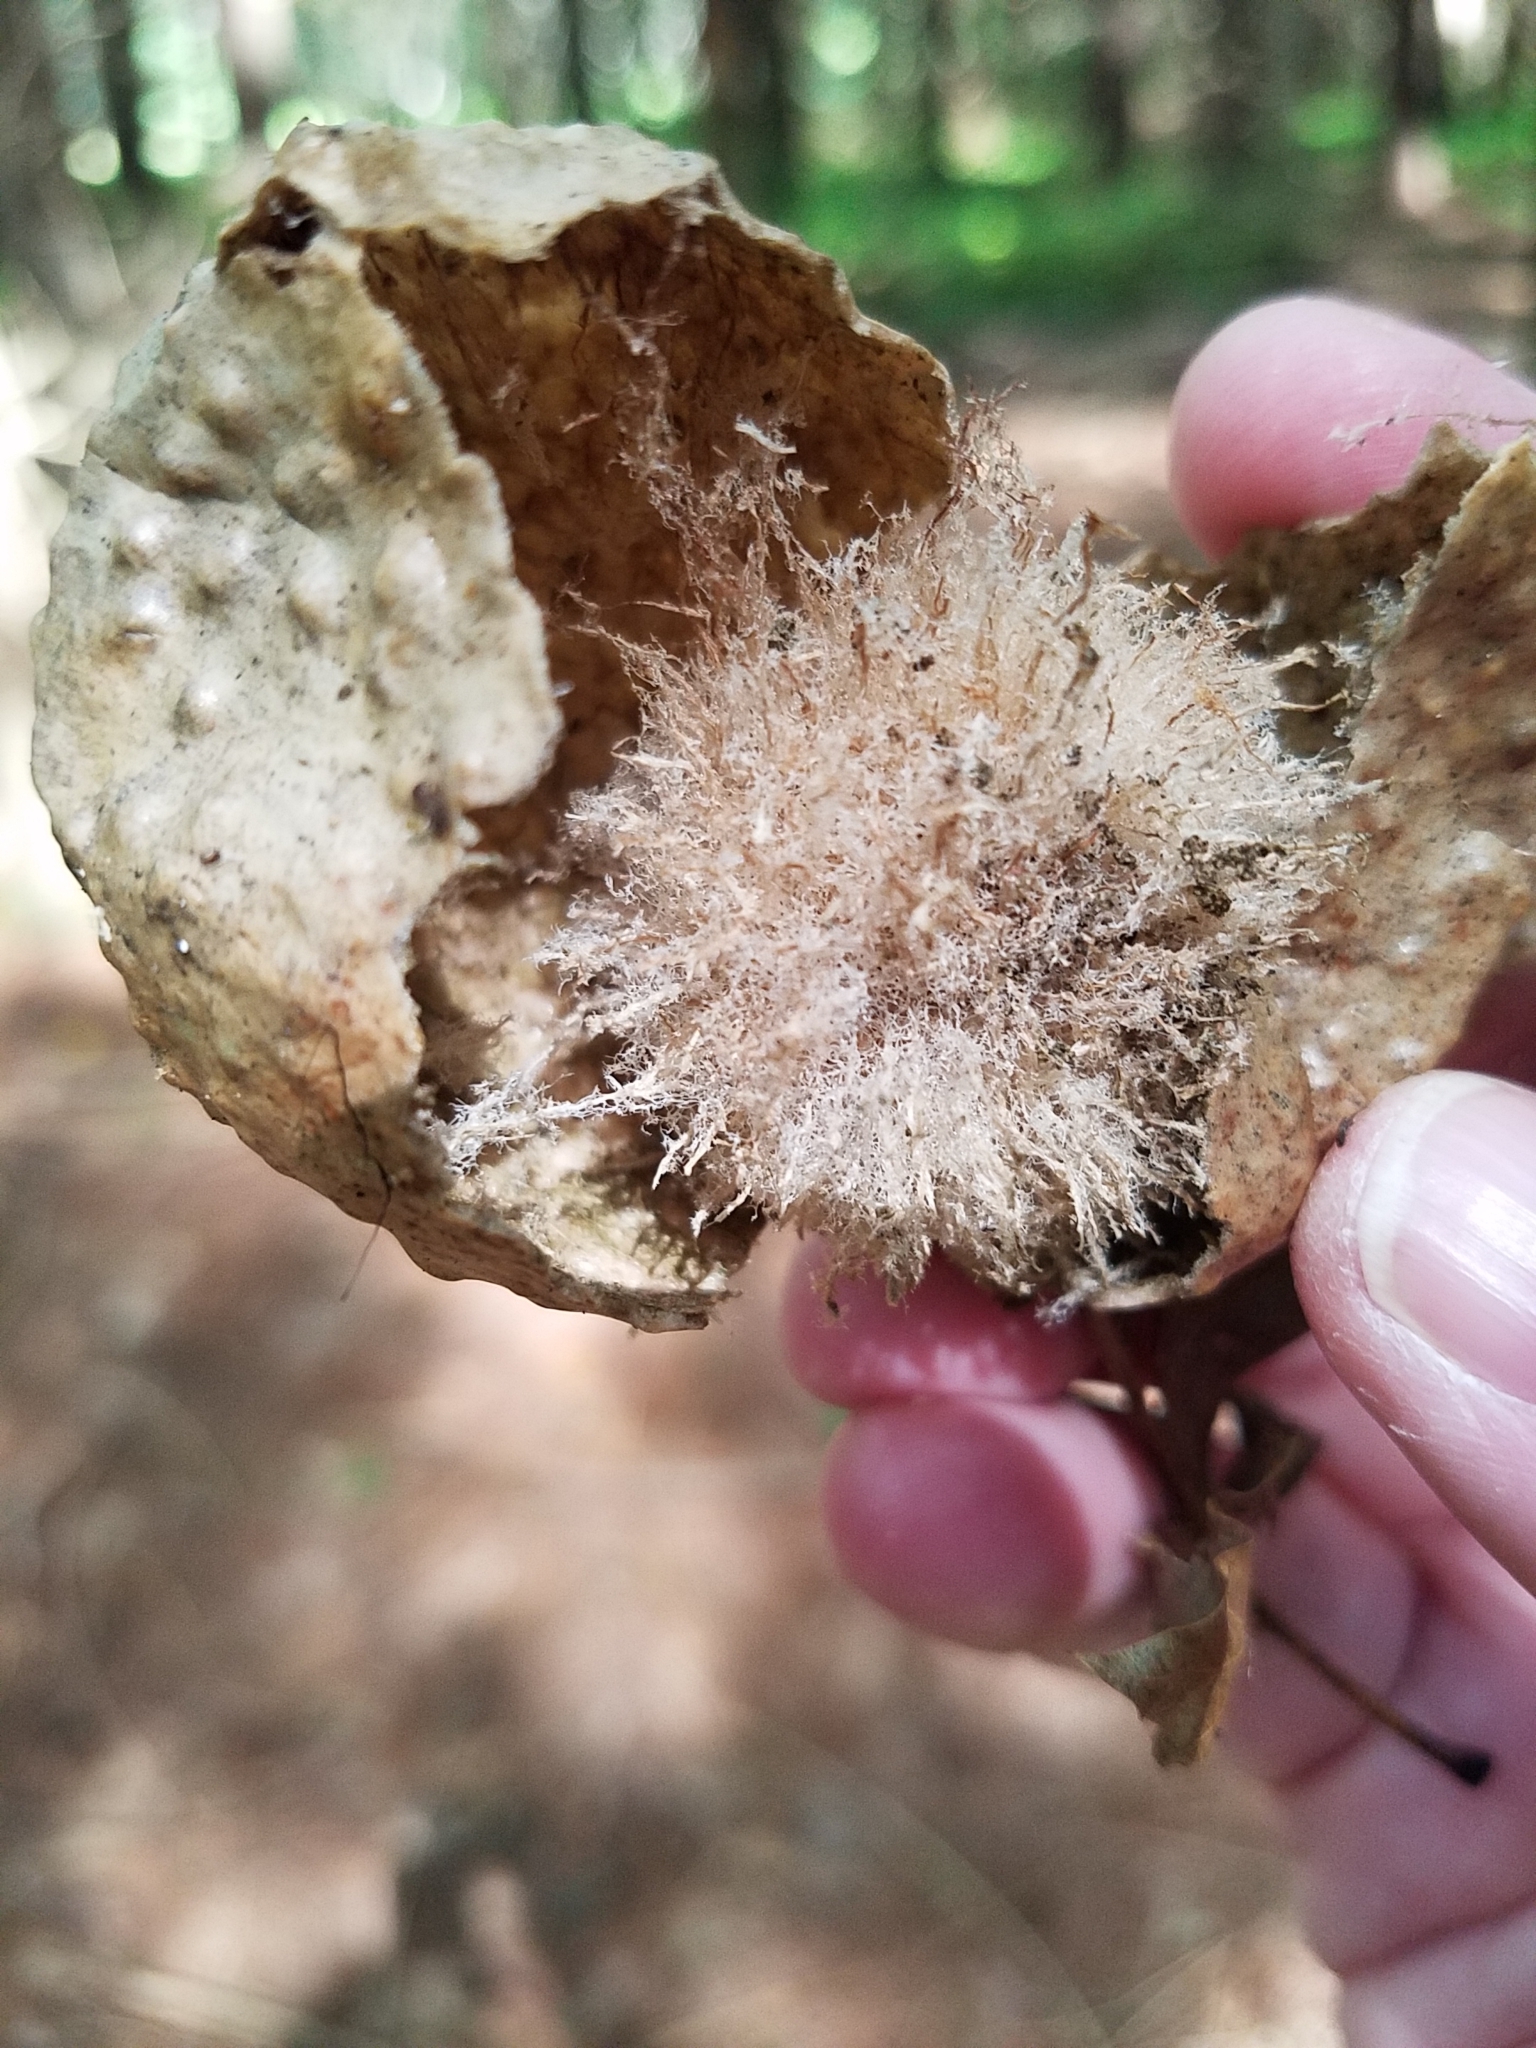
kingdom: Animalia
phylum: Arthropoda
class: Insecta
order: Hymenoptera
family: Cynipidae
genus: Amphibolips
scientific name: Amphibolips
